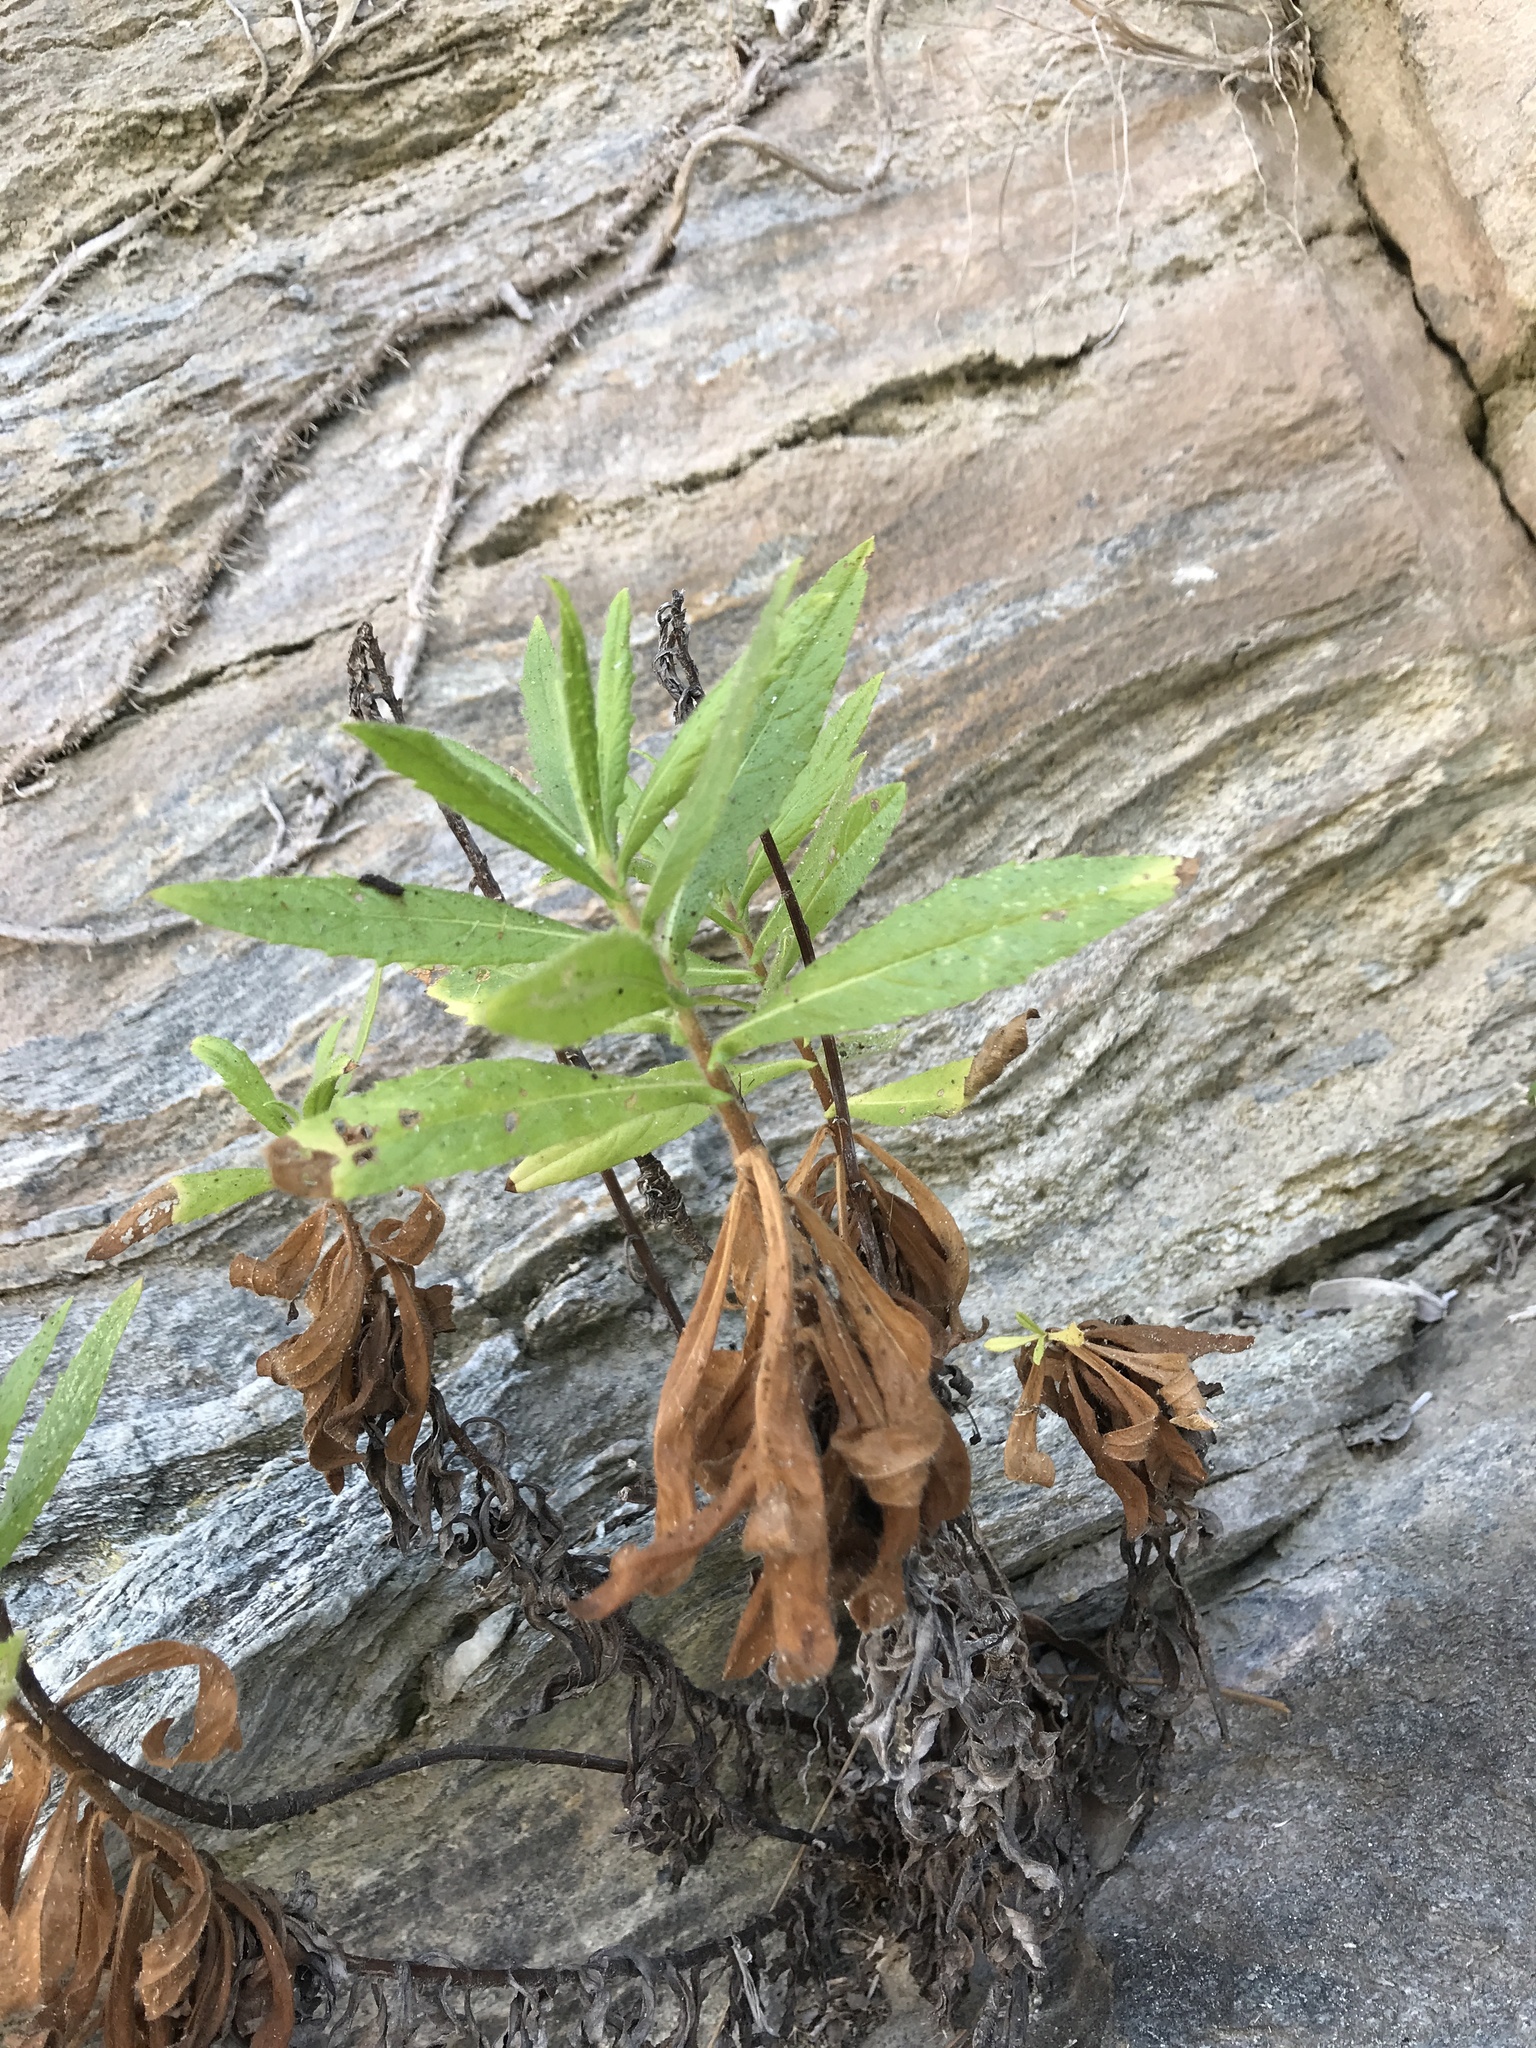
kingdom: Plantae
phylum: Tracheophyta
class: Magnoliopsida
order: Asterales
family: Asteraceae
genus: Dittrichia
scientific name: Dittrichia viscosa
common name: Woody fleabane
